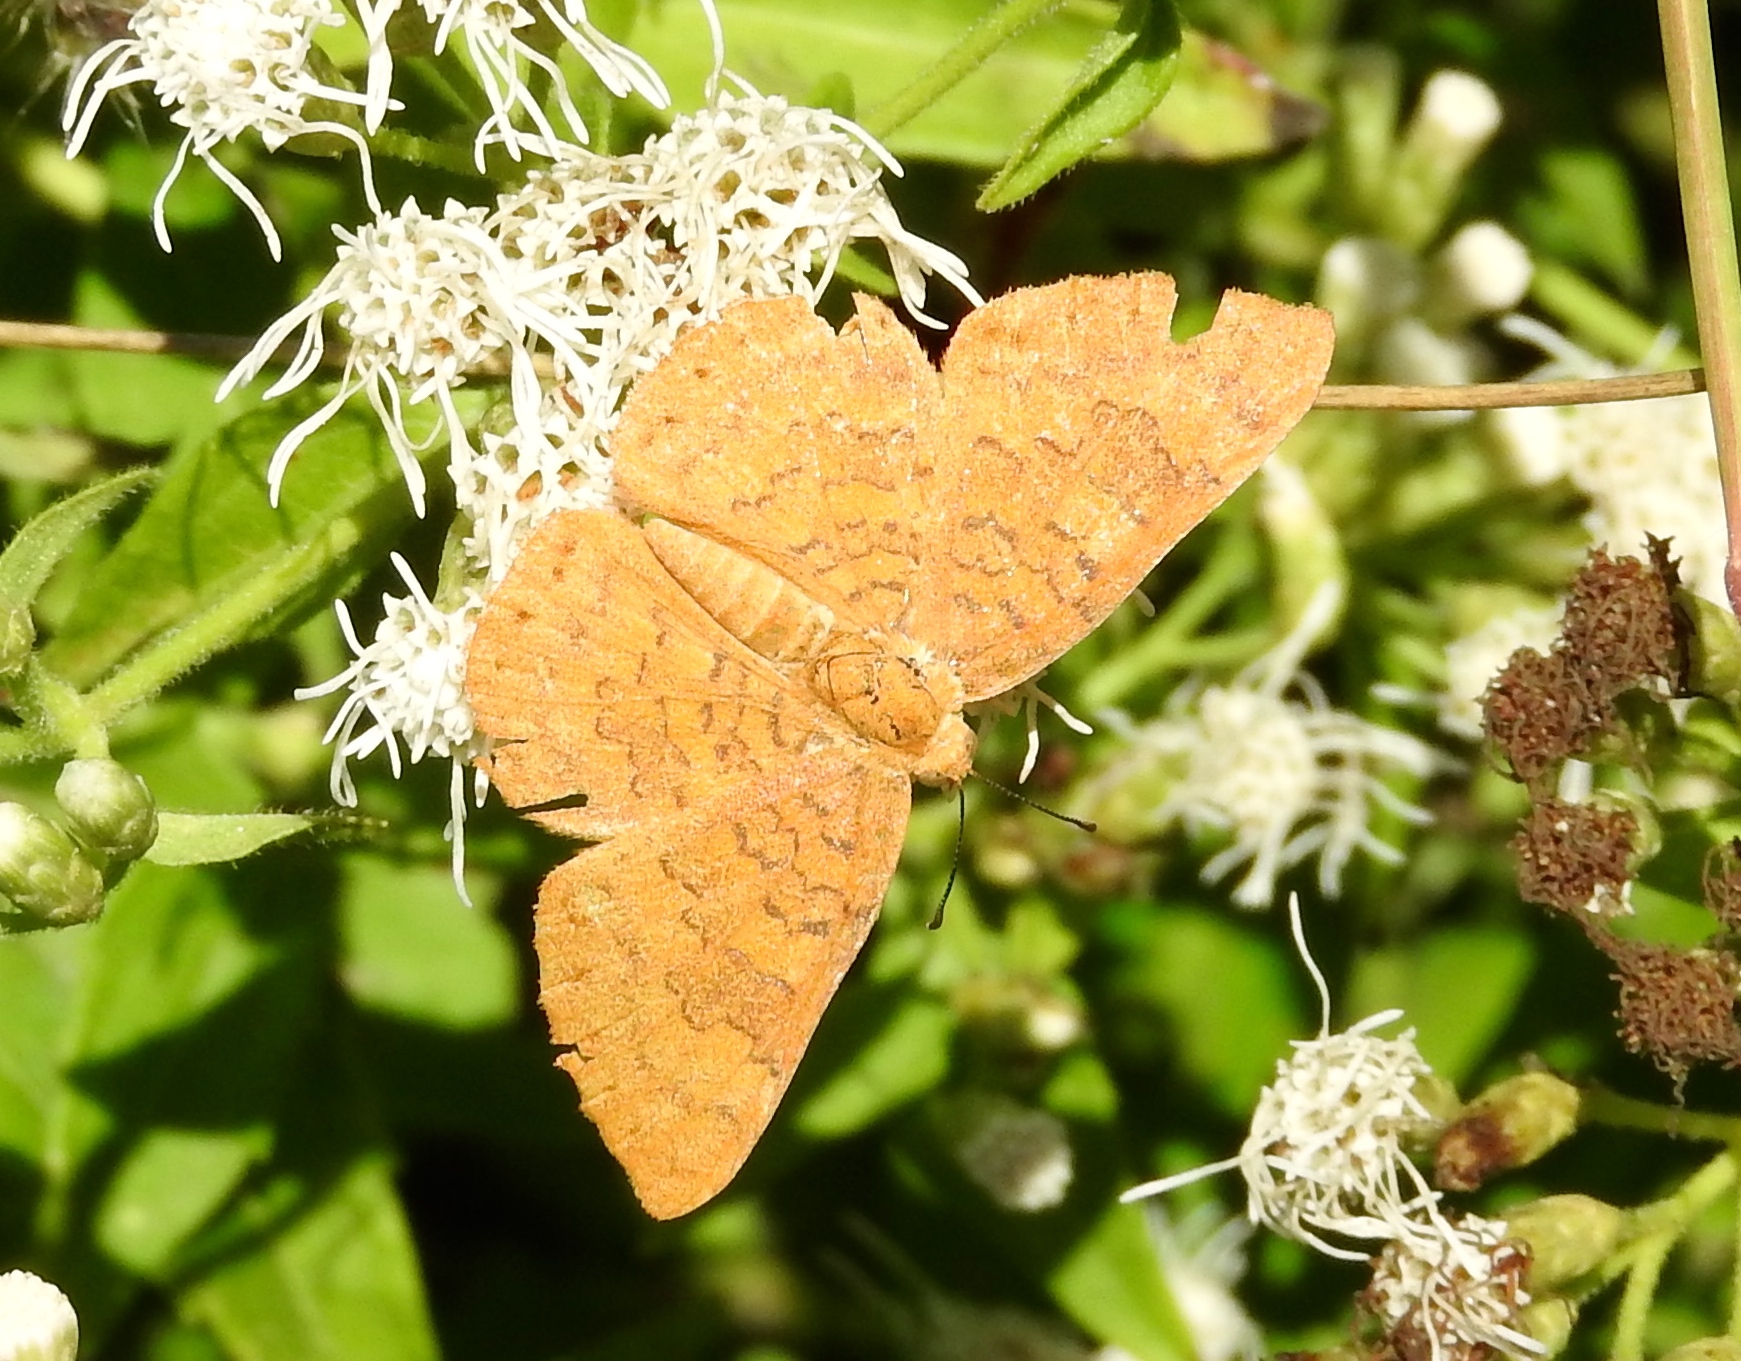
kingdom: Animalia
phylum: Arthropoda
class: Insecta
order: Lepidoptera
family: Lycaenidae
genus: Emesis
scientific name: Emesis
